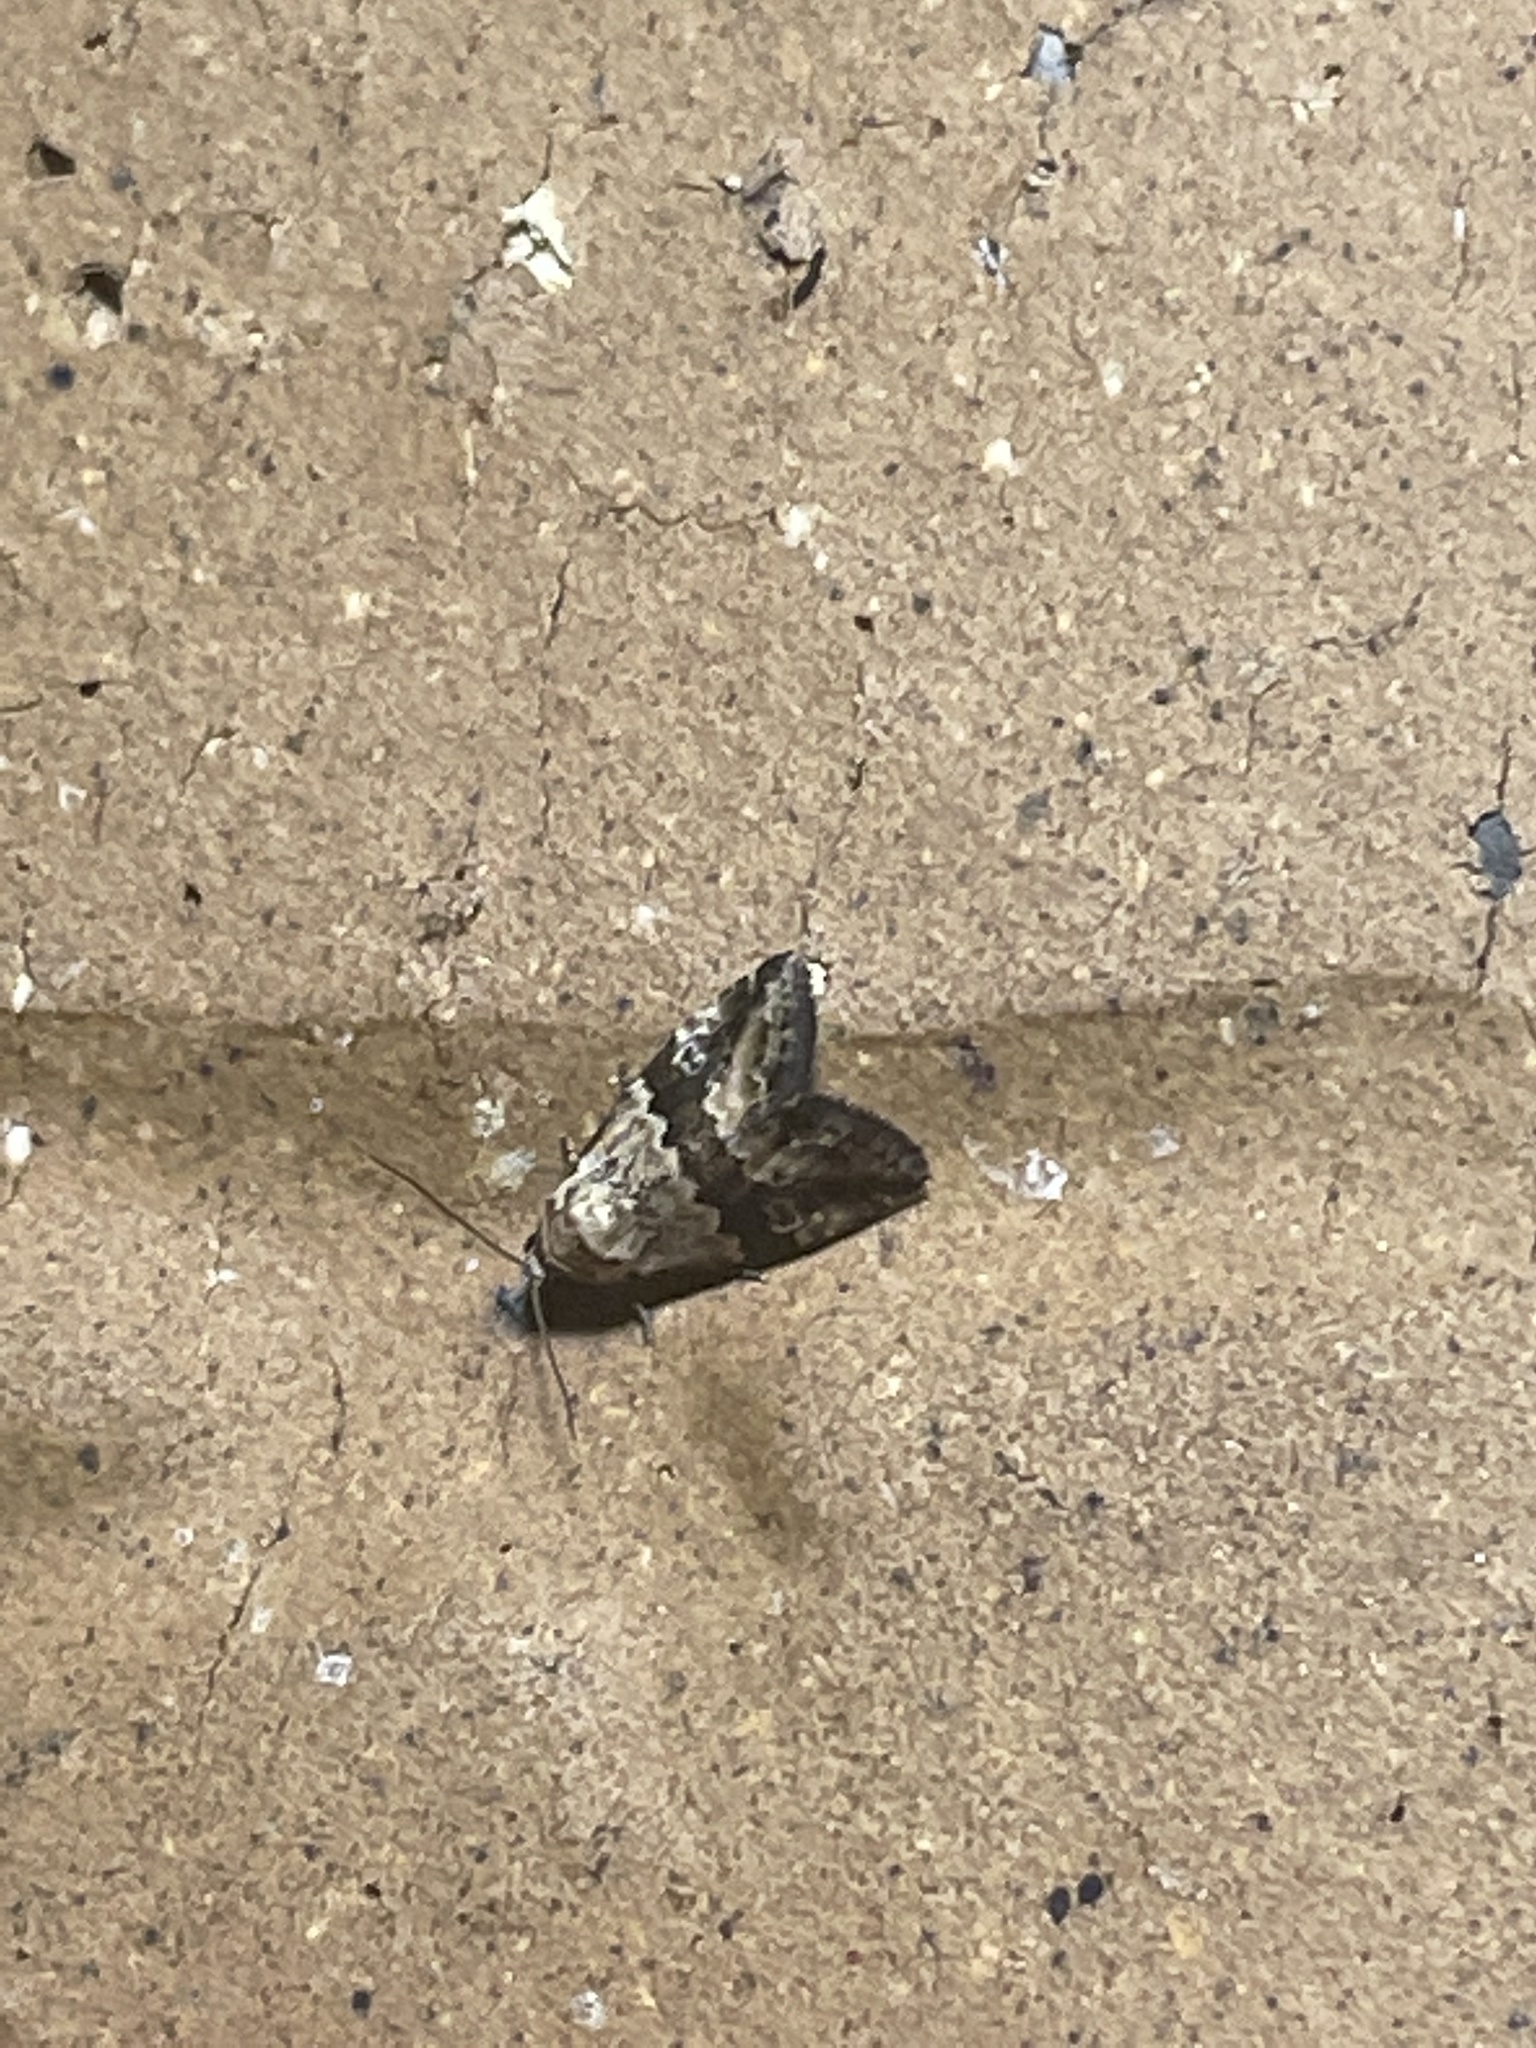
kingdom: Animalia
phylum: Arthropoda
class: Insecta
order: Lepidoptera
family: Noctuidae
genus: Maliattha
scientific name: Maliattha amorpha
